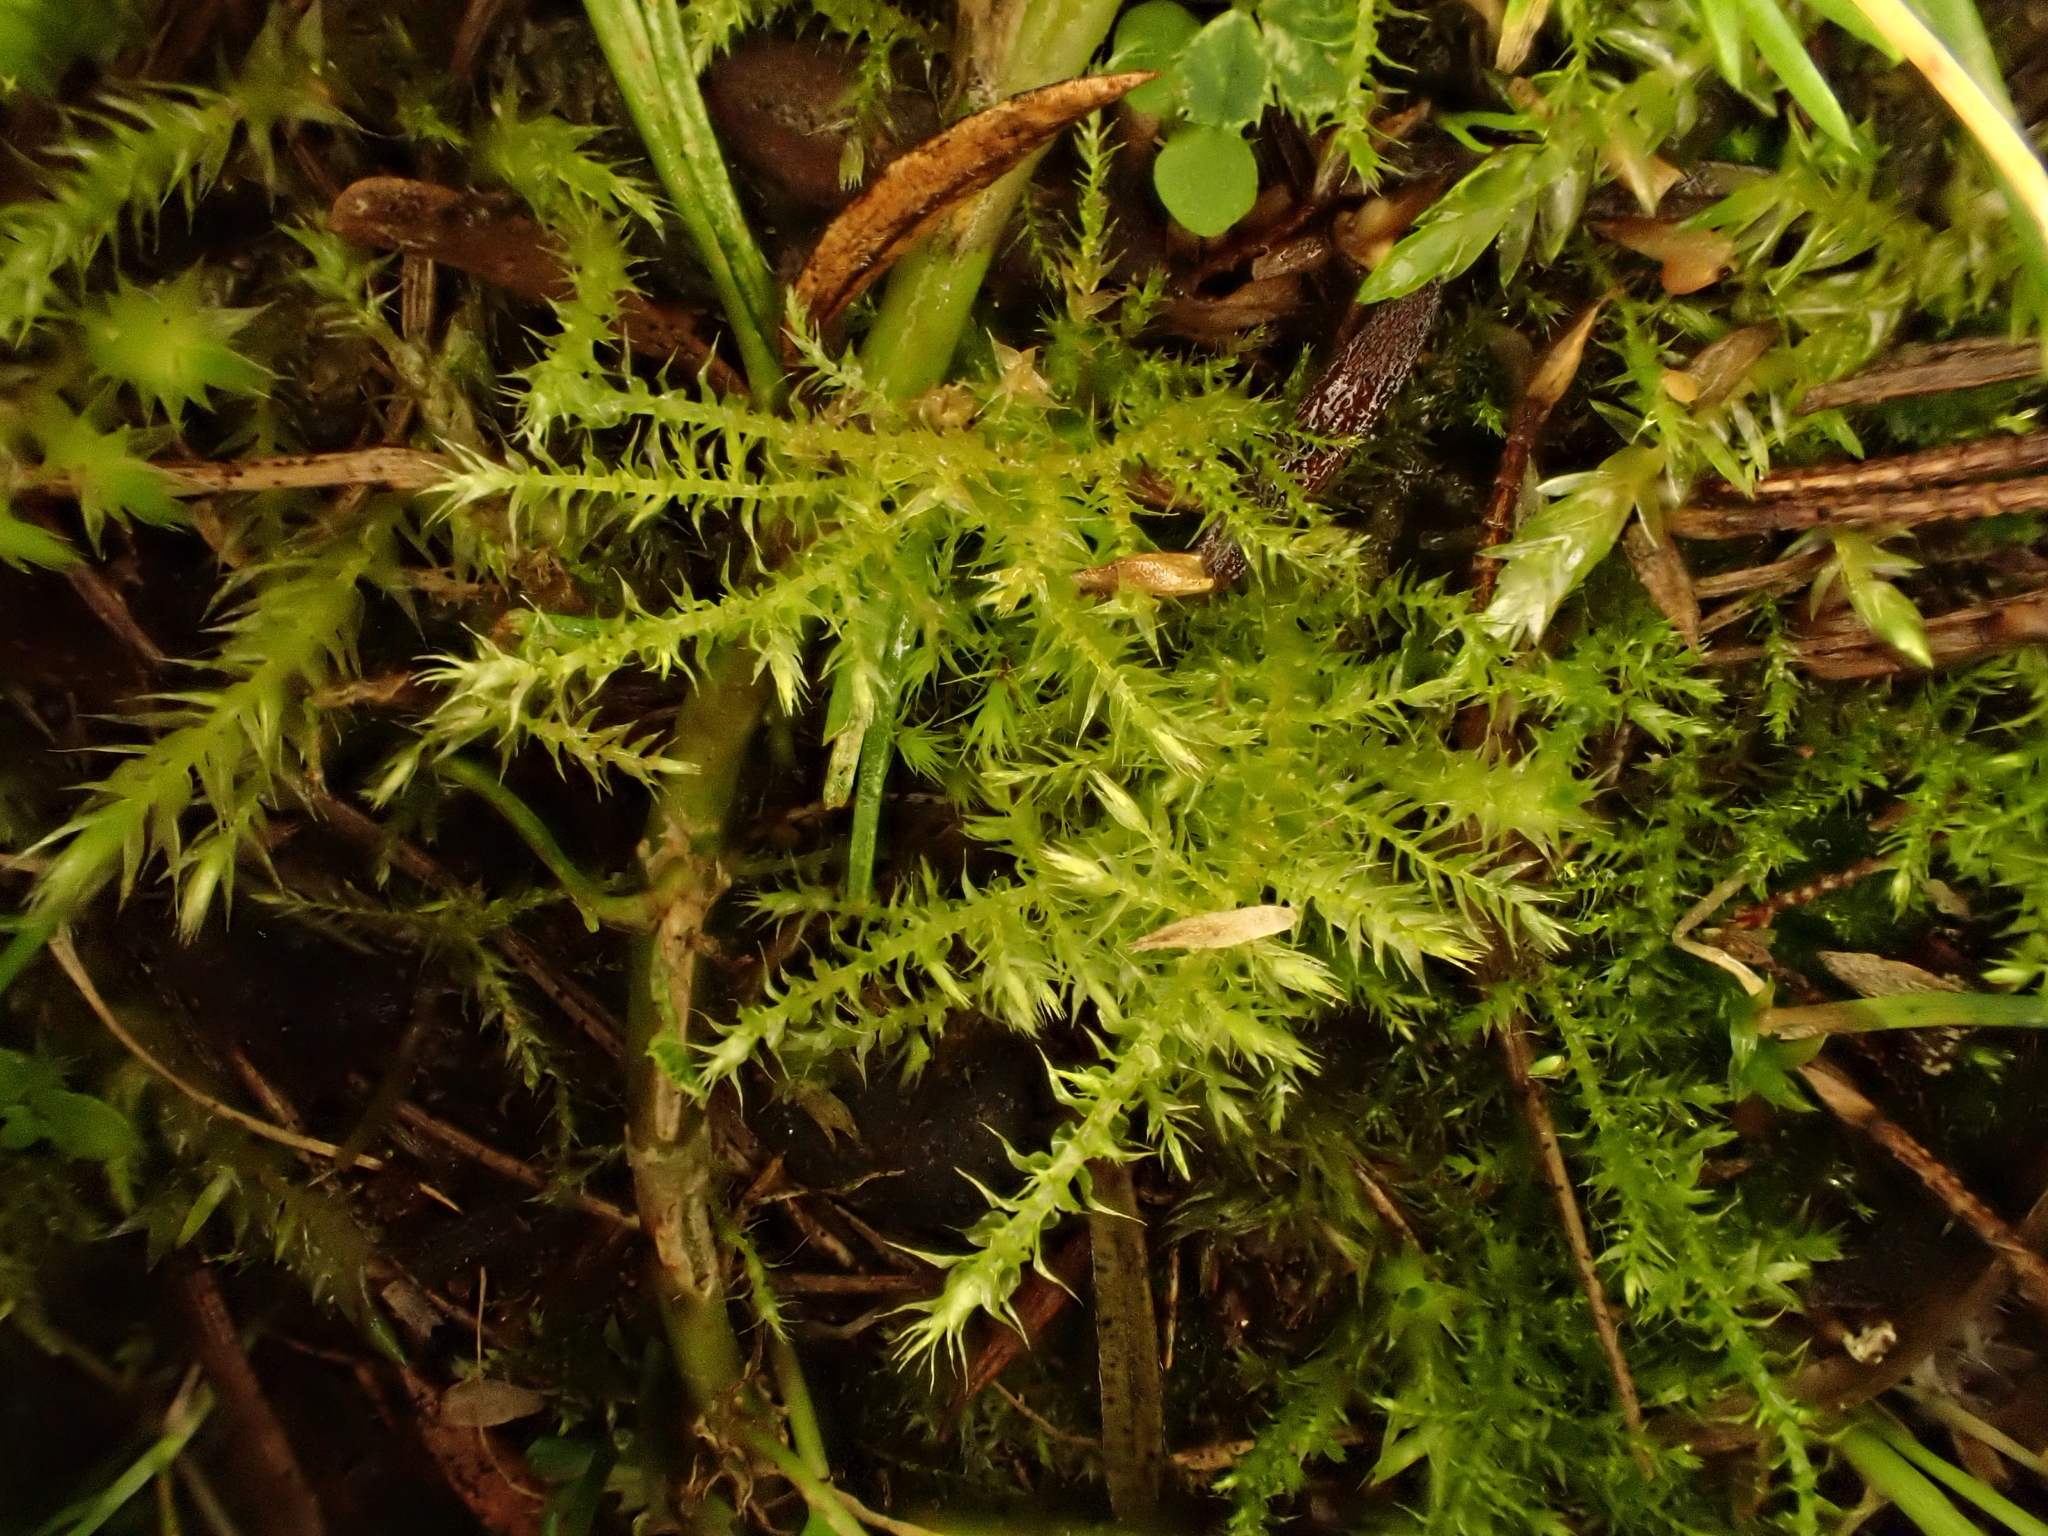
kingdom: Plantae
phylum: Bryophyta
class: Bryopsida
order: Hypnales
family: Brachytheciaceae
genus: Kindbergia
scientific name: Kindbergia praelonga
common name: Slender beaked moss
